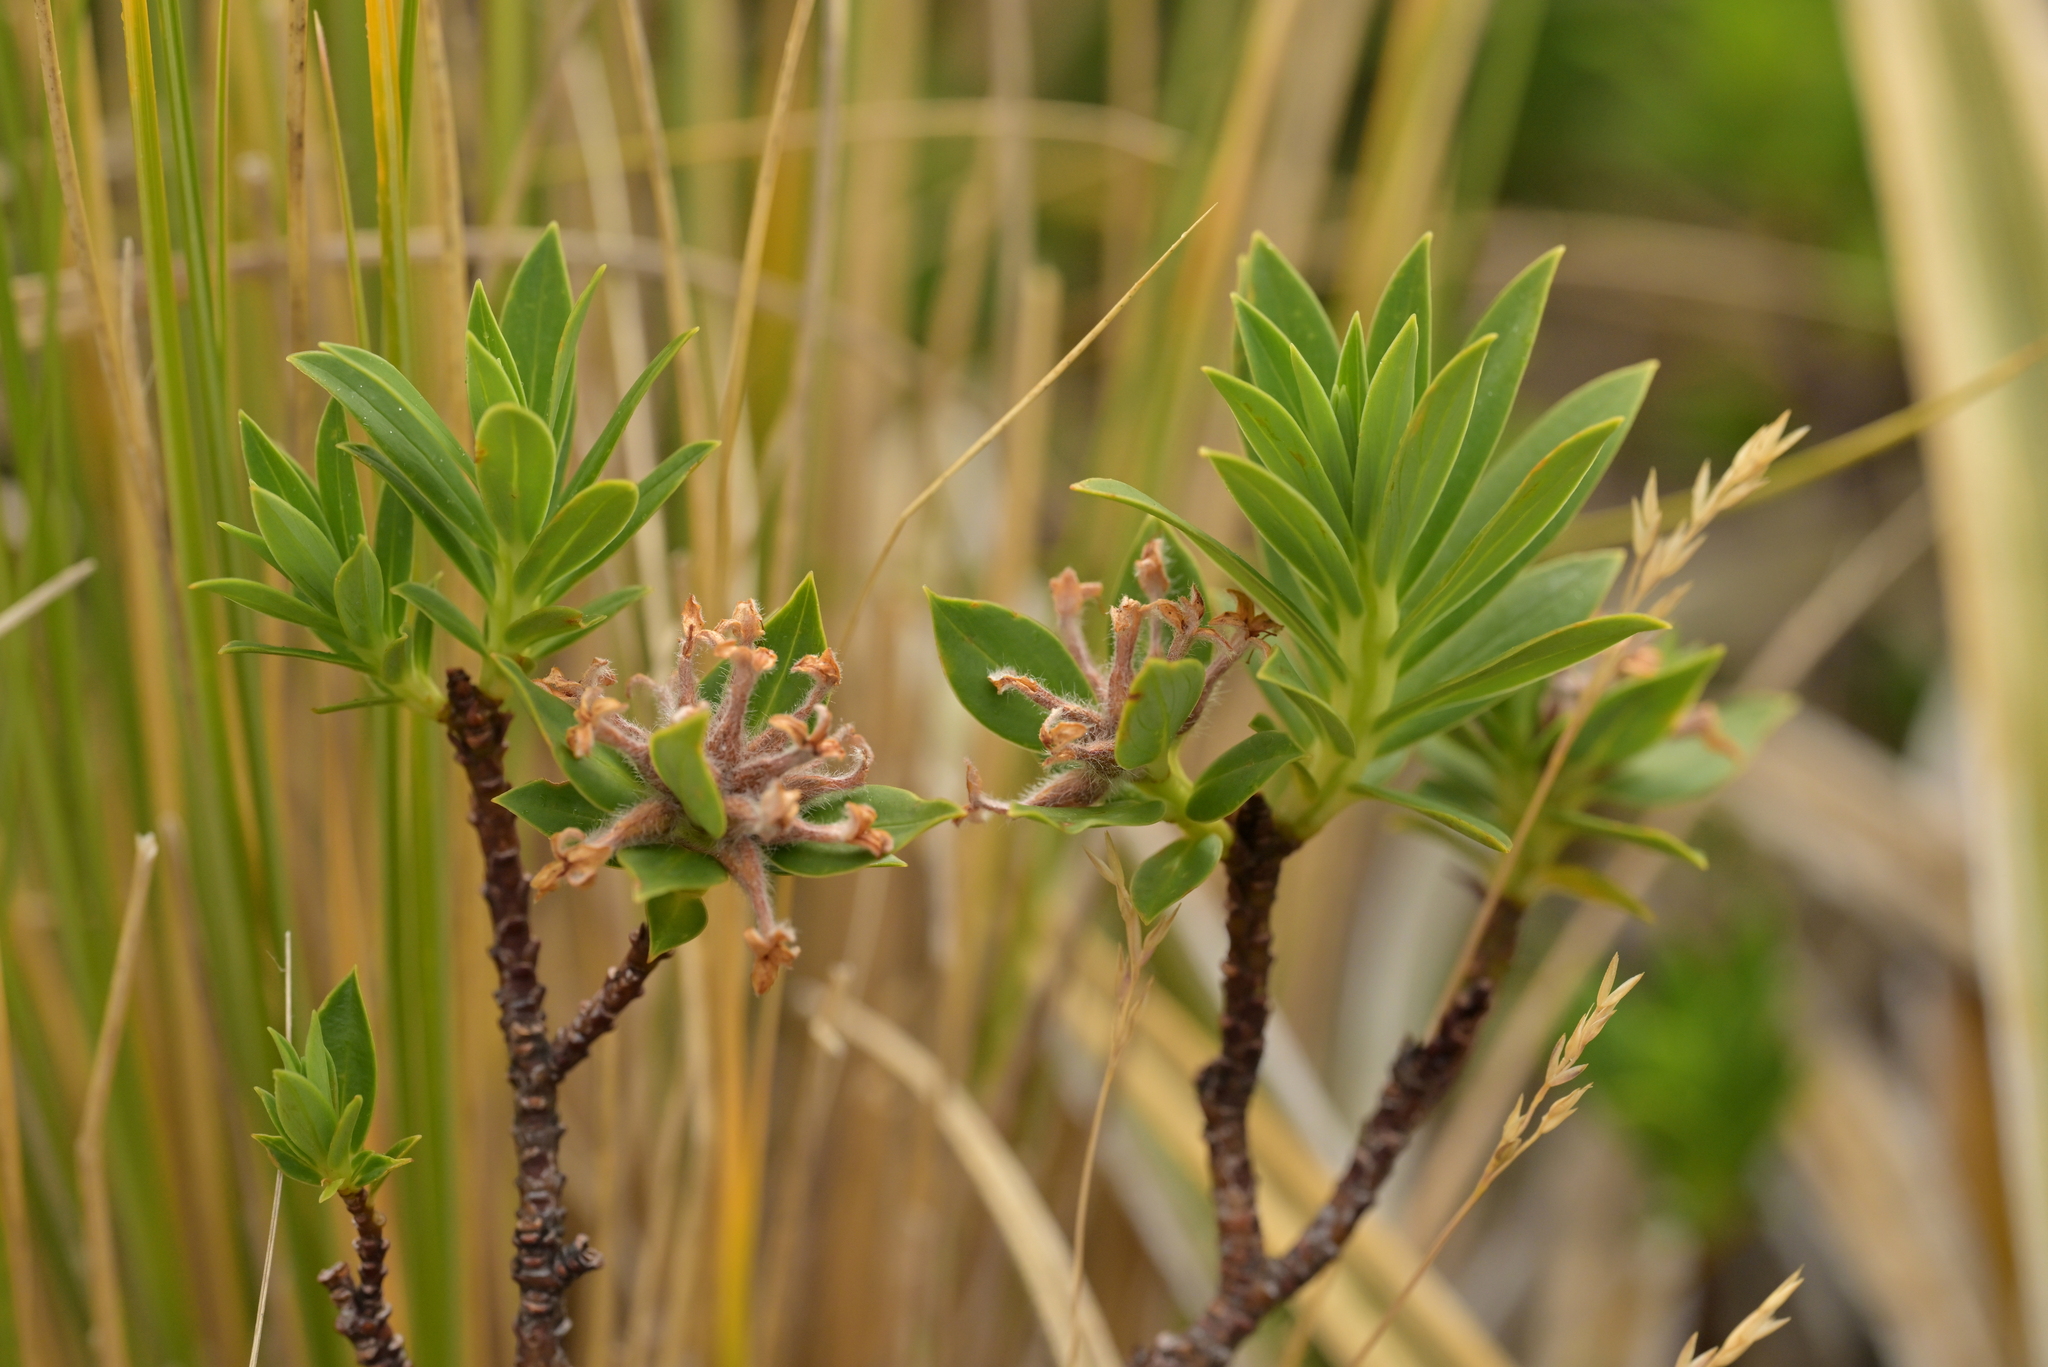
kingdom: Plantae
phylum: Tracheophyta
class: Magnoliopsida
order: Malvales
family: Thymelaeaceae
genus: Pimelea
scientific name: Pimelea gnidia
